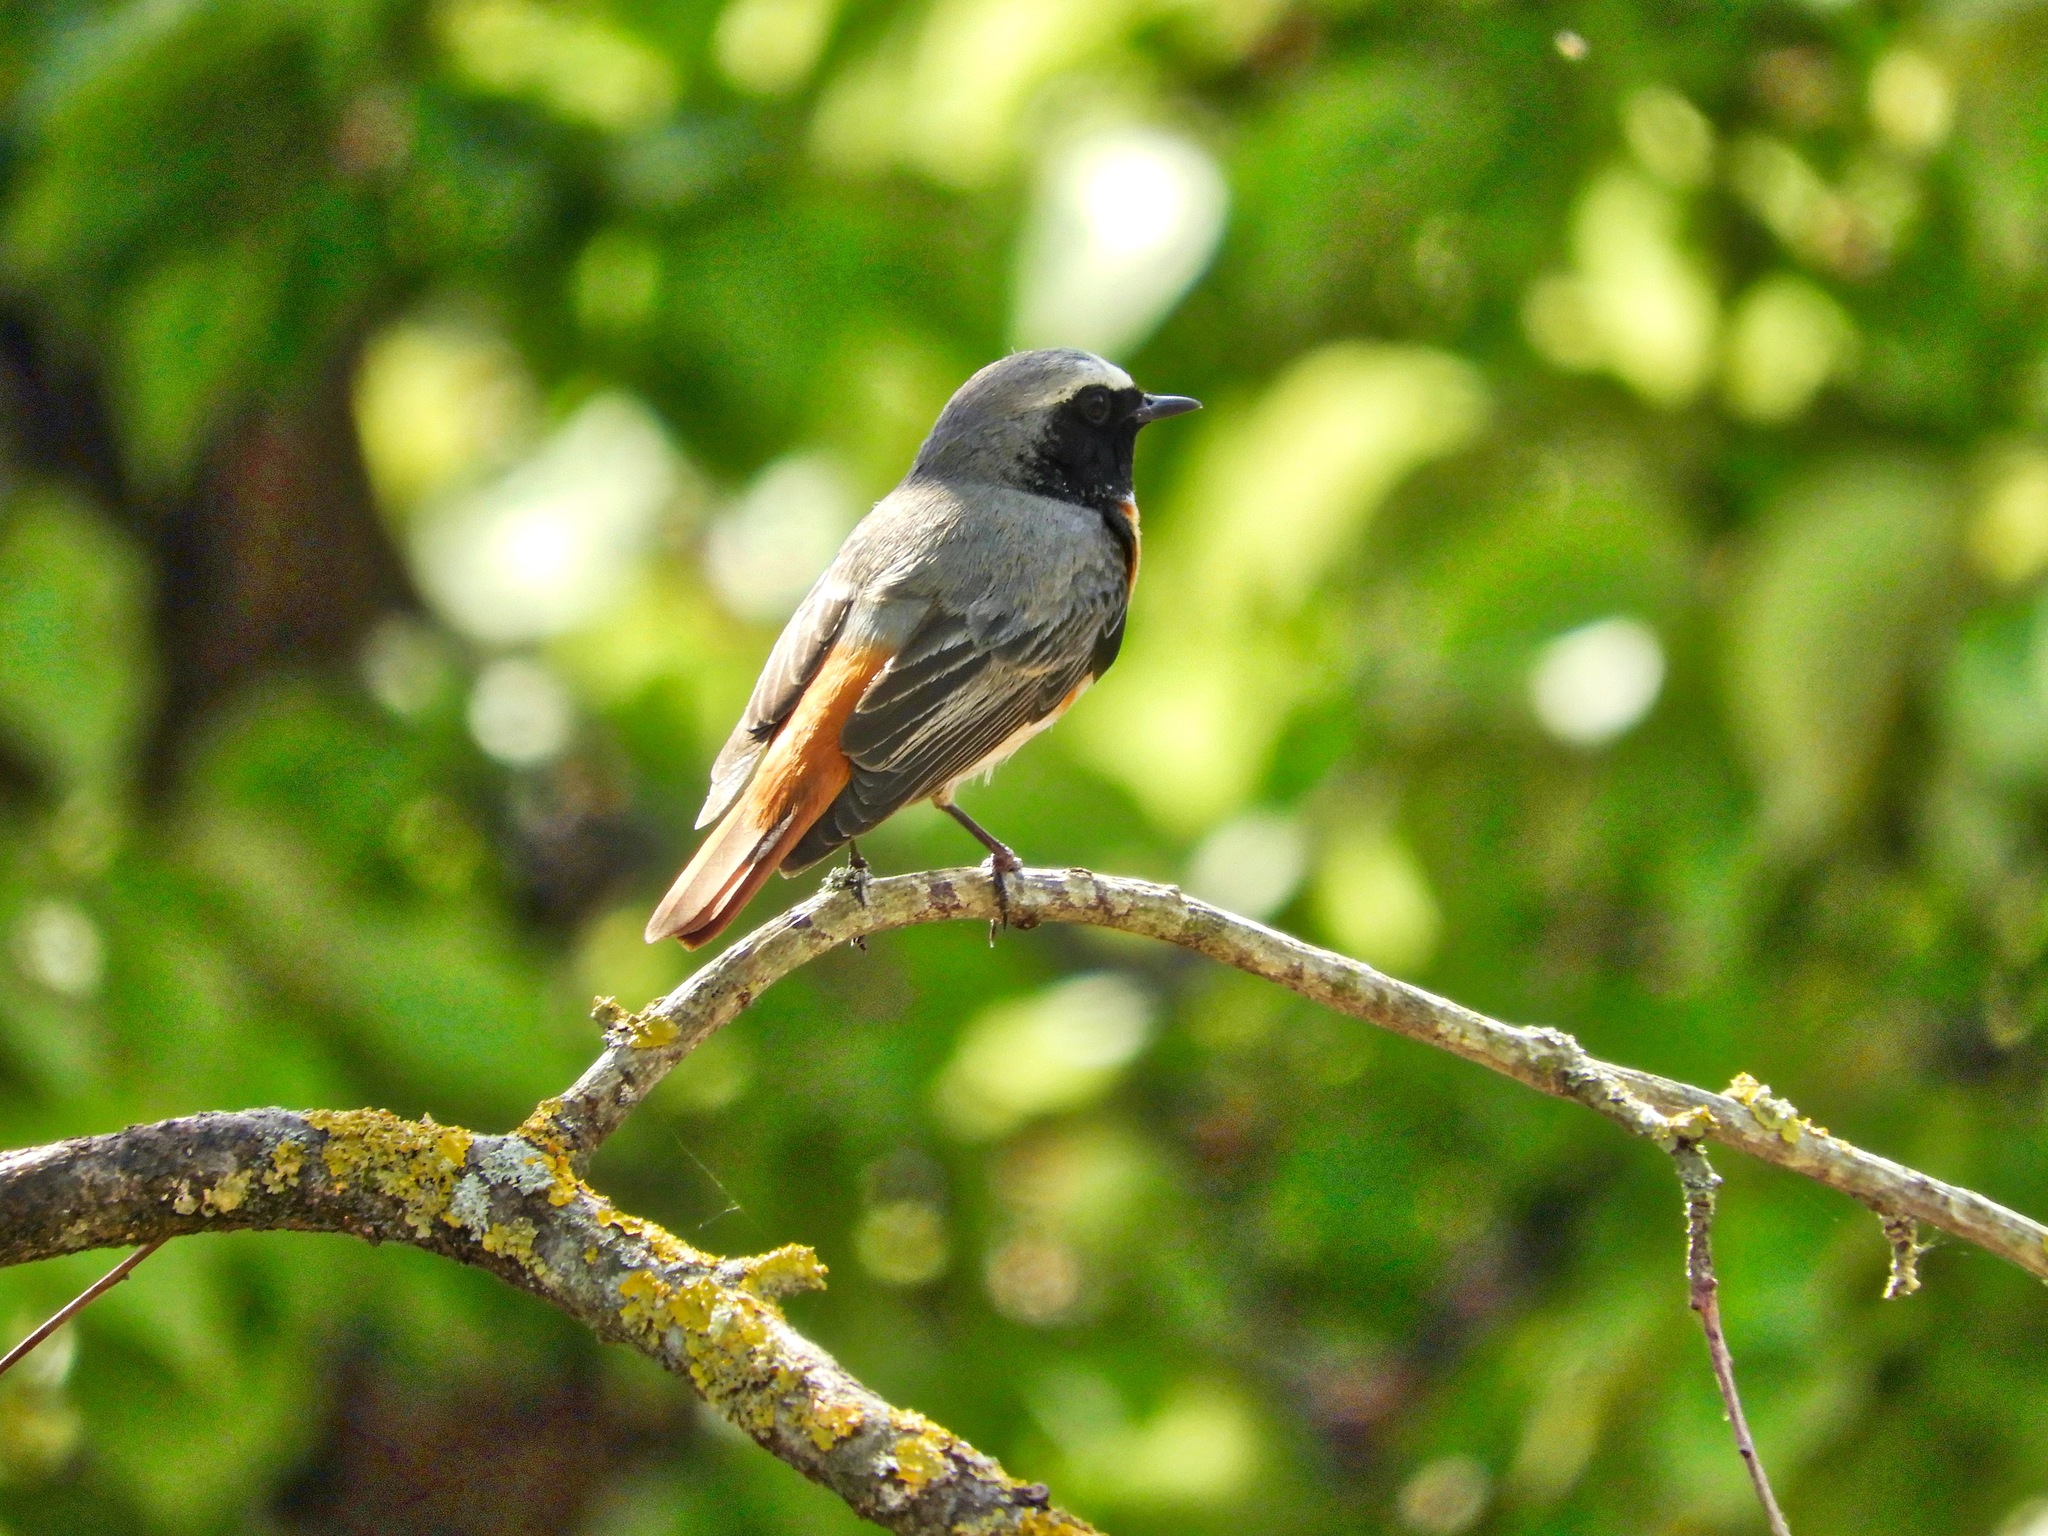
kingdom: Animalia
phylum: Chordata
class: Aves
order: Passeriformes
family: Muscicapidae
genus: Phoenicurus
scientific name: Phoenicurus phoenicurus
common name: Common redstart
